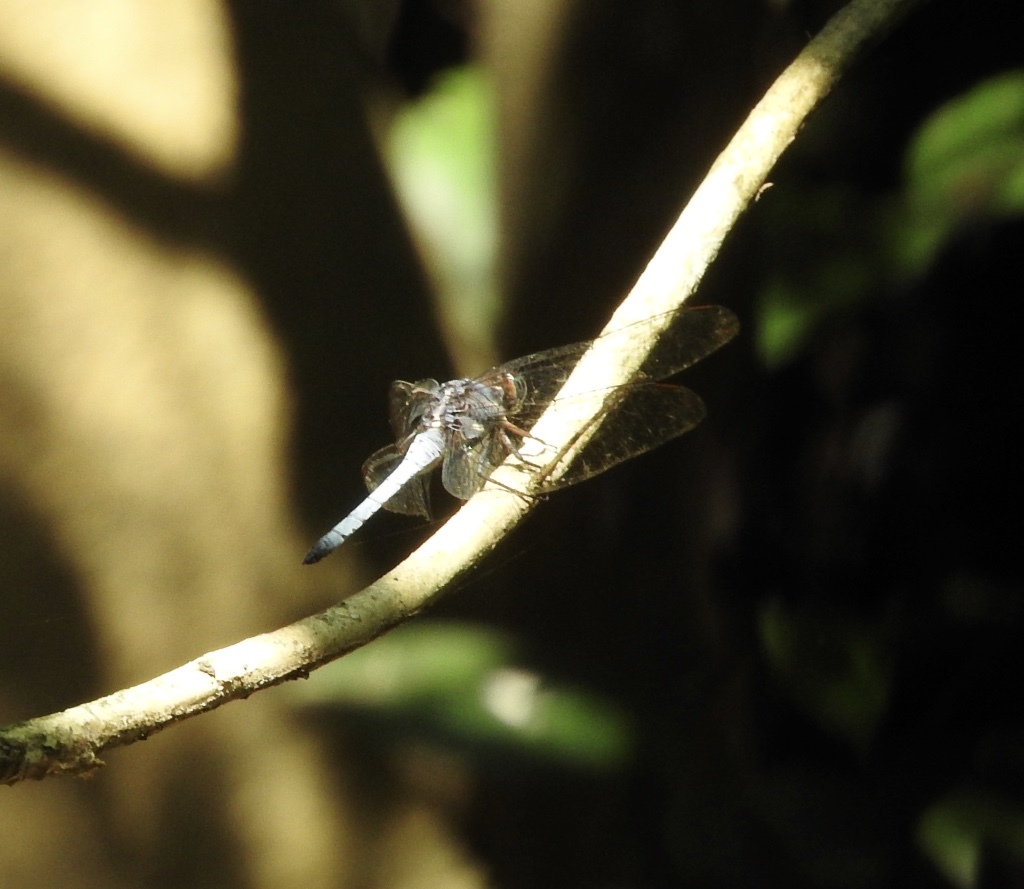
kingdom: Animalia
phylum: Arthropoda
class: Insecta
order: Odonata
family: Libellulidae
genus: Orthetrum
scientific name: Orthetrum glaucum
